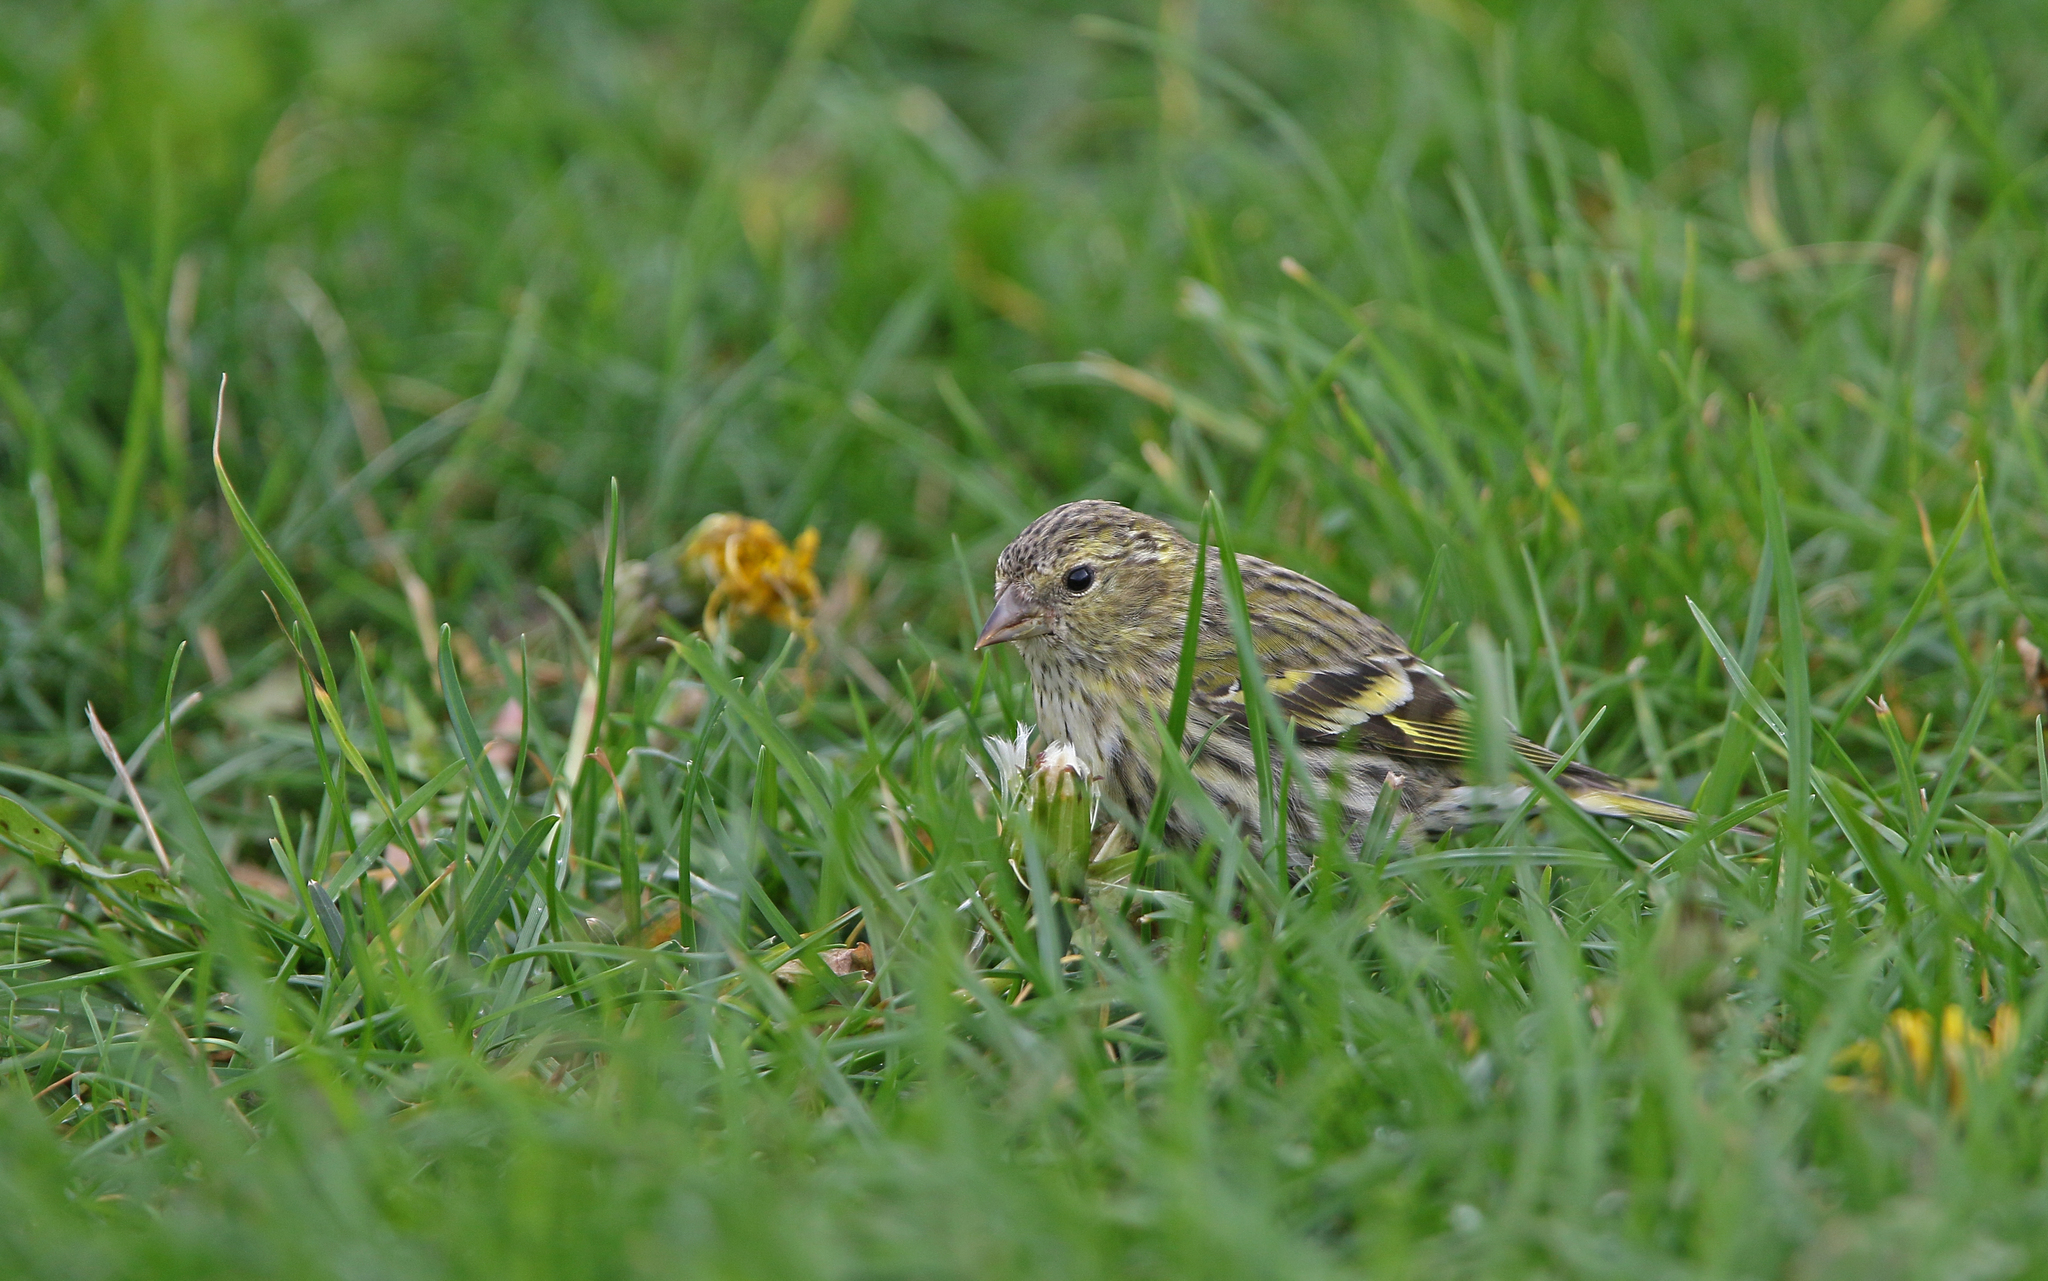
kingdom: Animalia
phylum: Chordata
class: Aves
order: Passeriformes
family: Fringillidae
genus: Spinus
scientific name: Spinus spinus
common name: Eurasian siskin
